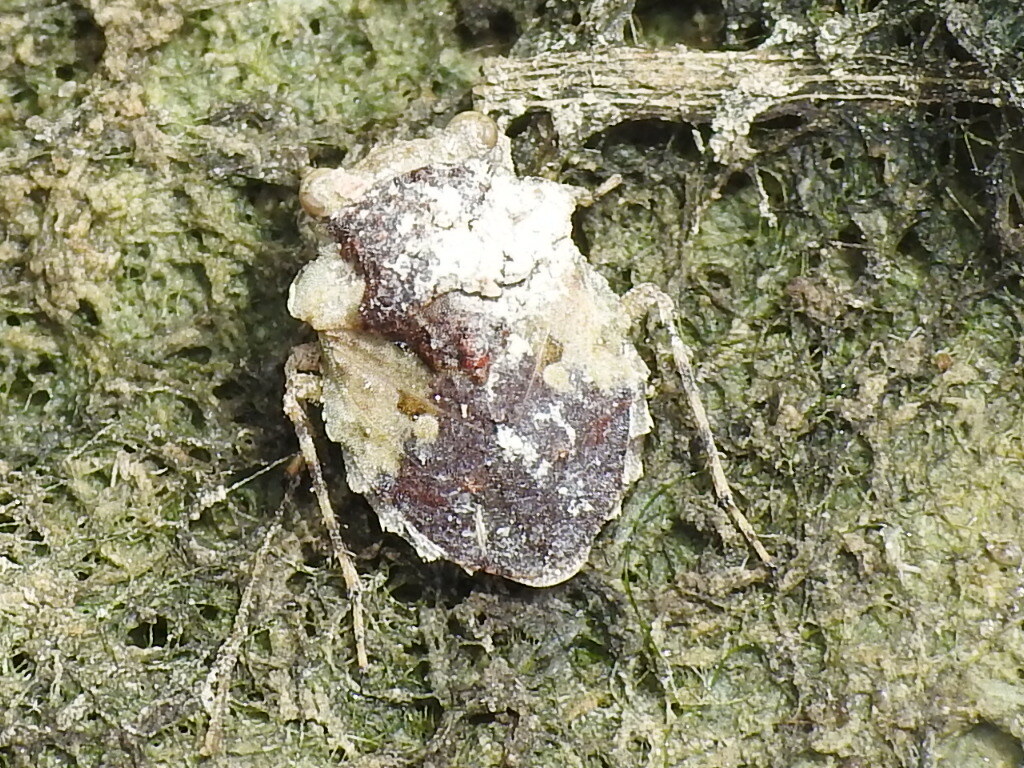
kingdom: Animalia
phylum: Arthropoda
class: Insecta
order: Hemiptera
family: Gelastocoridae
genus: Gelastocoris
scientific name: Gelastocoris oculatus
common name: Toad bug
